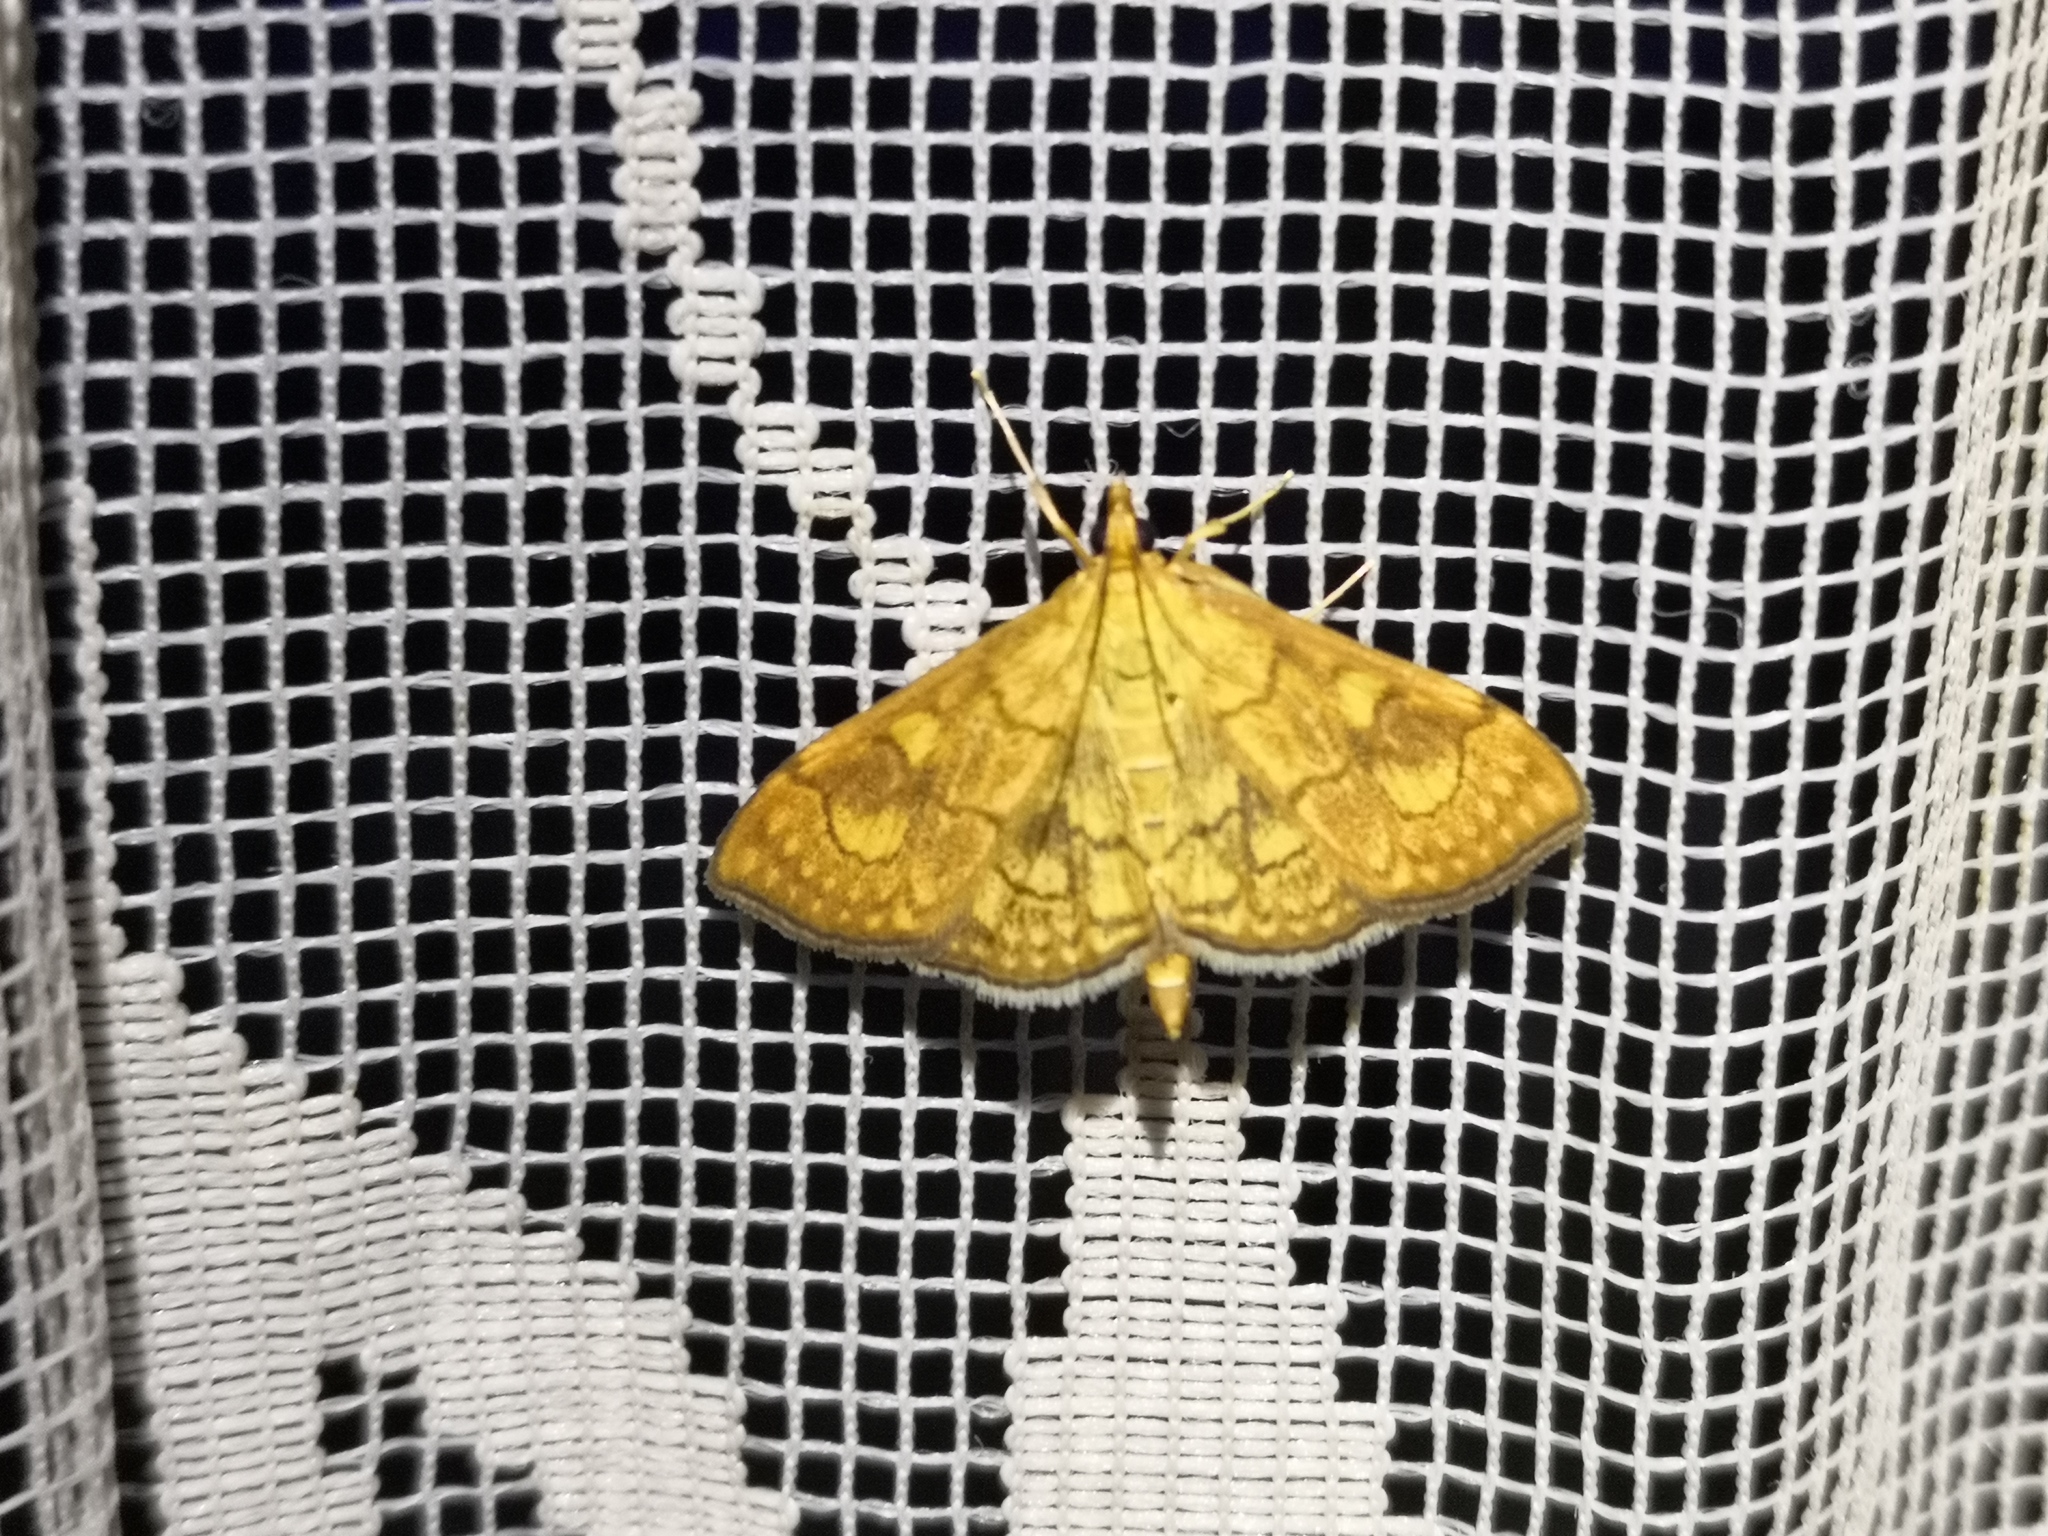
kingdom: Animalia
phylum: Arthropoda
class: Insecta
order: Lepidoptera
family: Crambidae
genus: Anania
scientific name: Anania verbascalis
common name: Golden pearl
